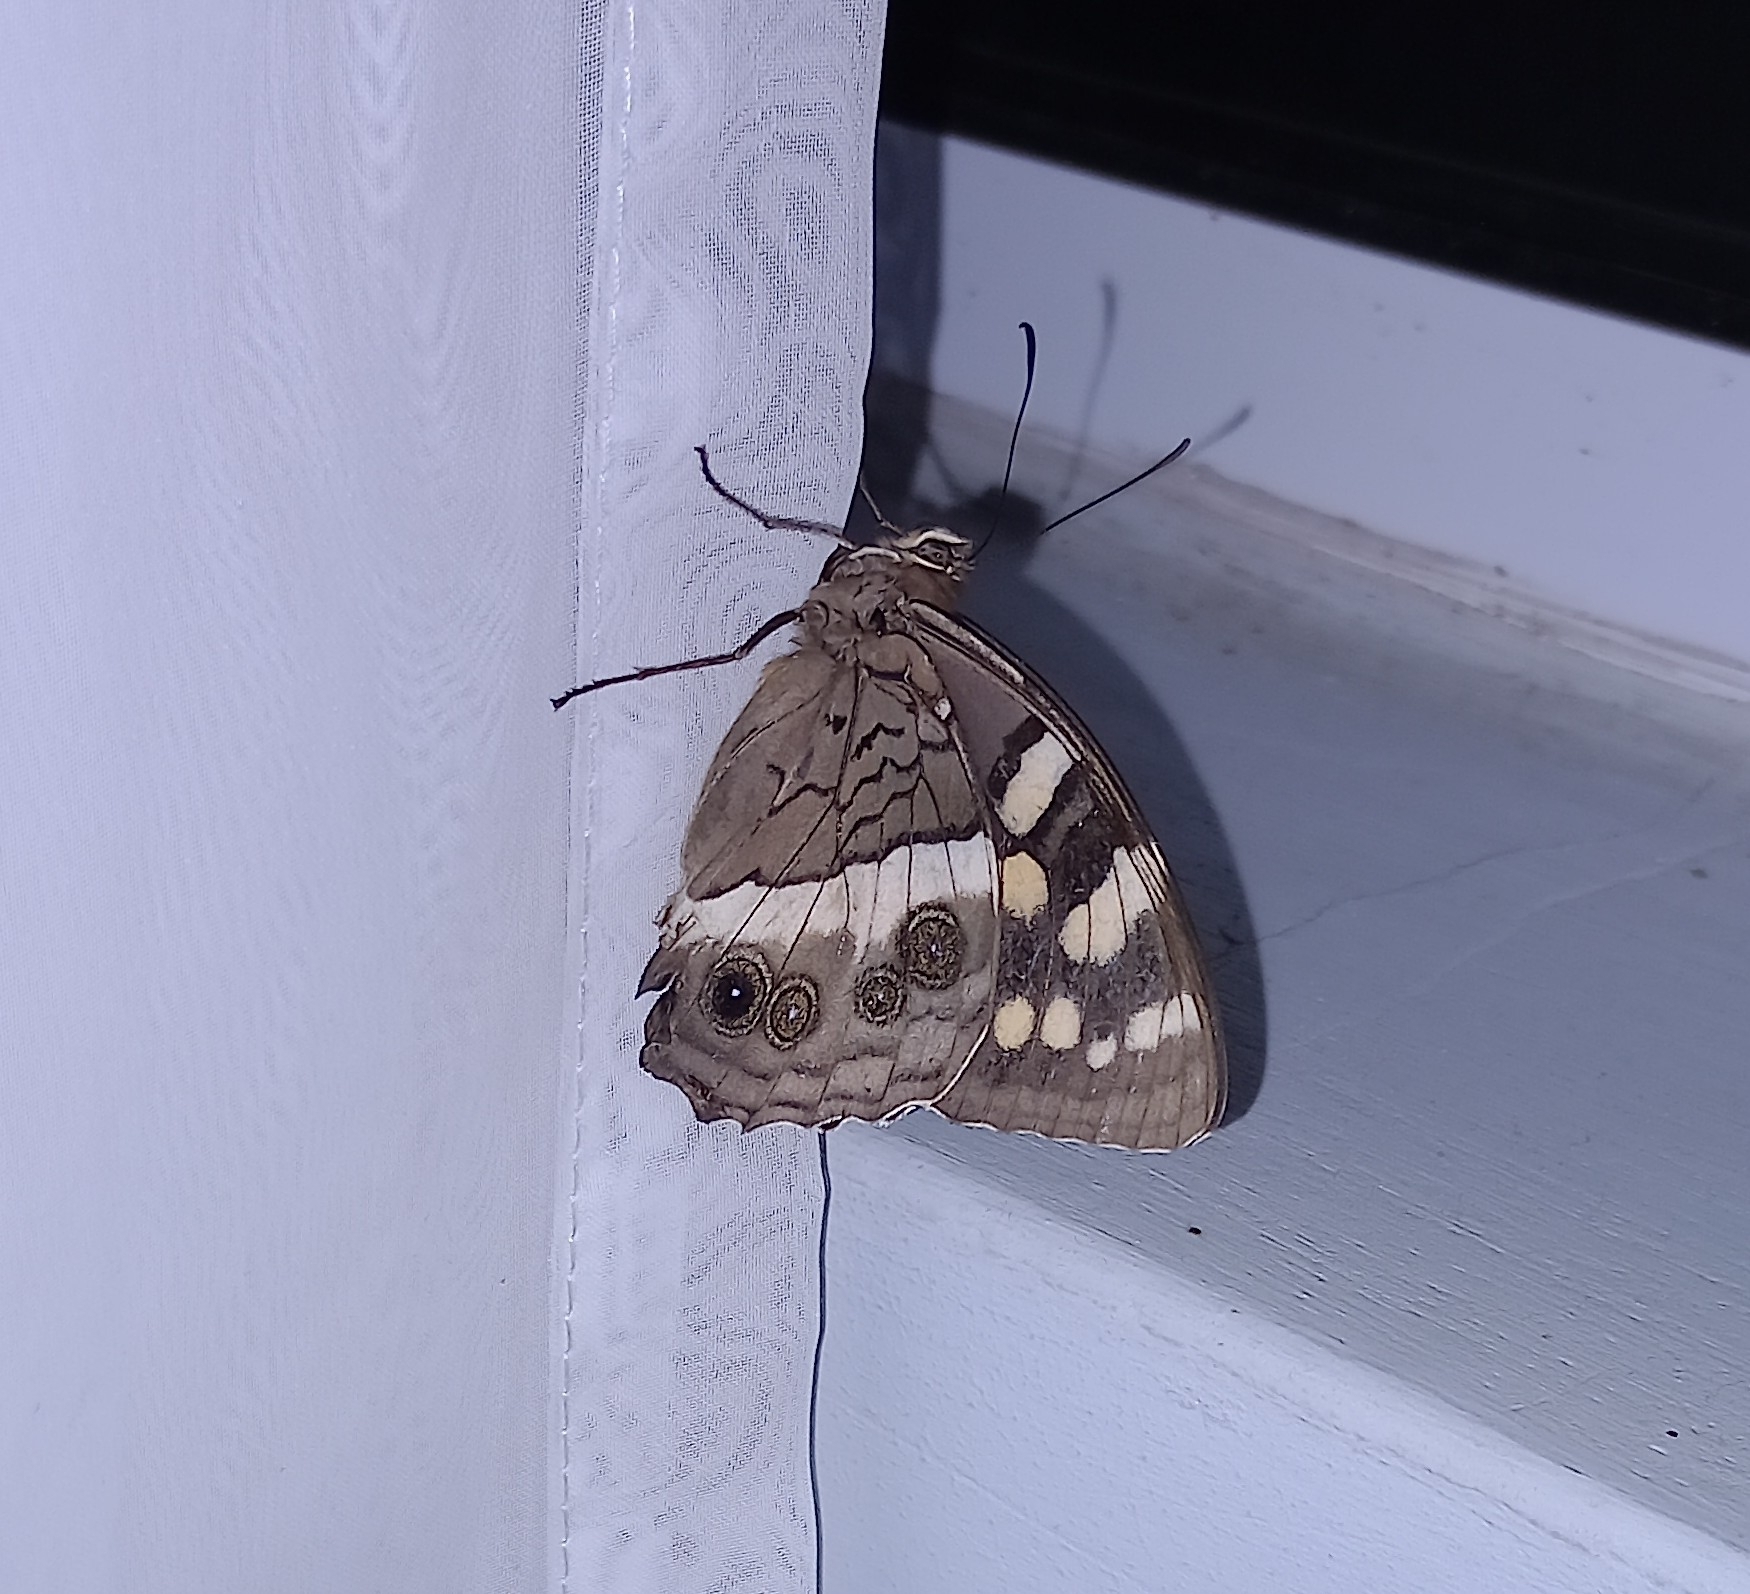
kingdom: Animalia
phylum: Arthropoda
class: Insecta
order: Lepidoptera
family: Nymphalidae
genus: Meneris
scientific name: Meneris Aeropetes tulbaghia
